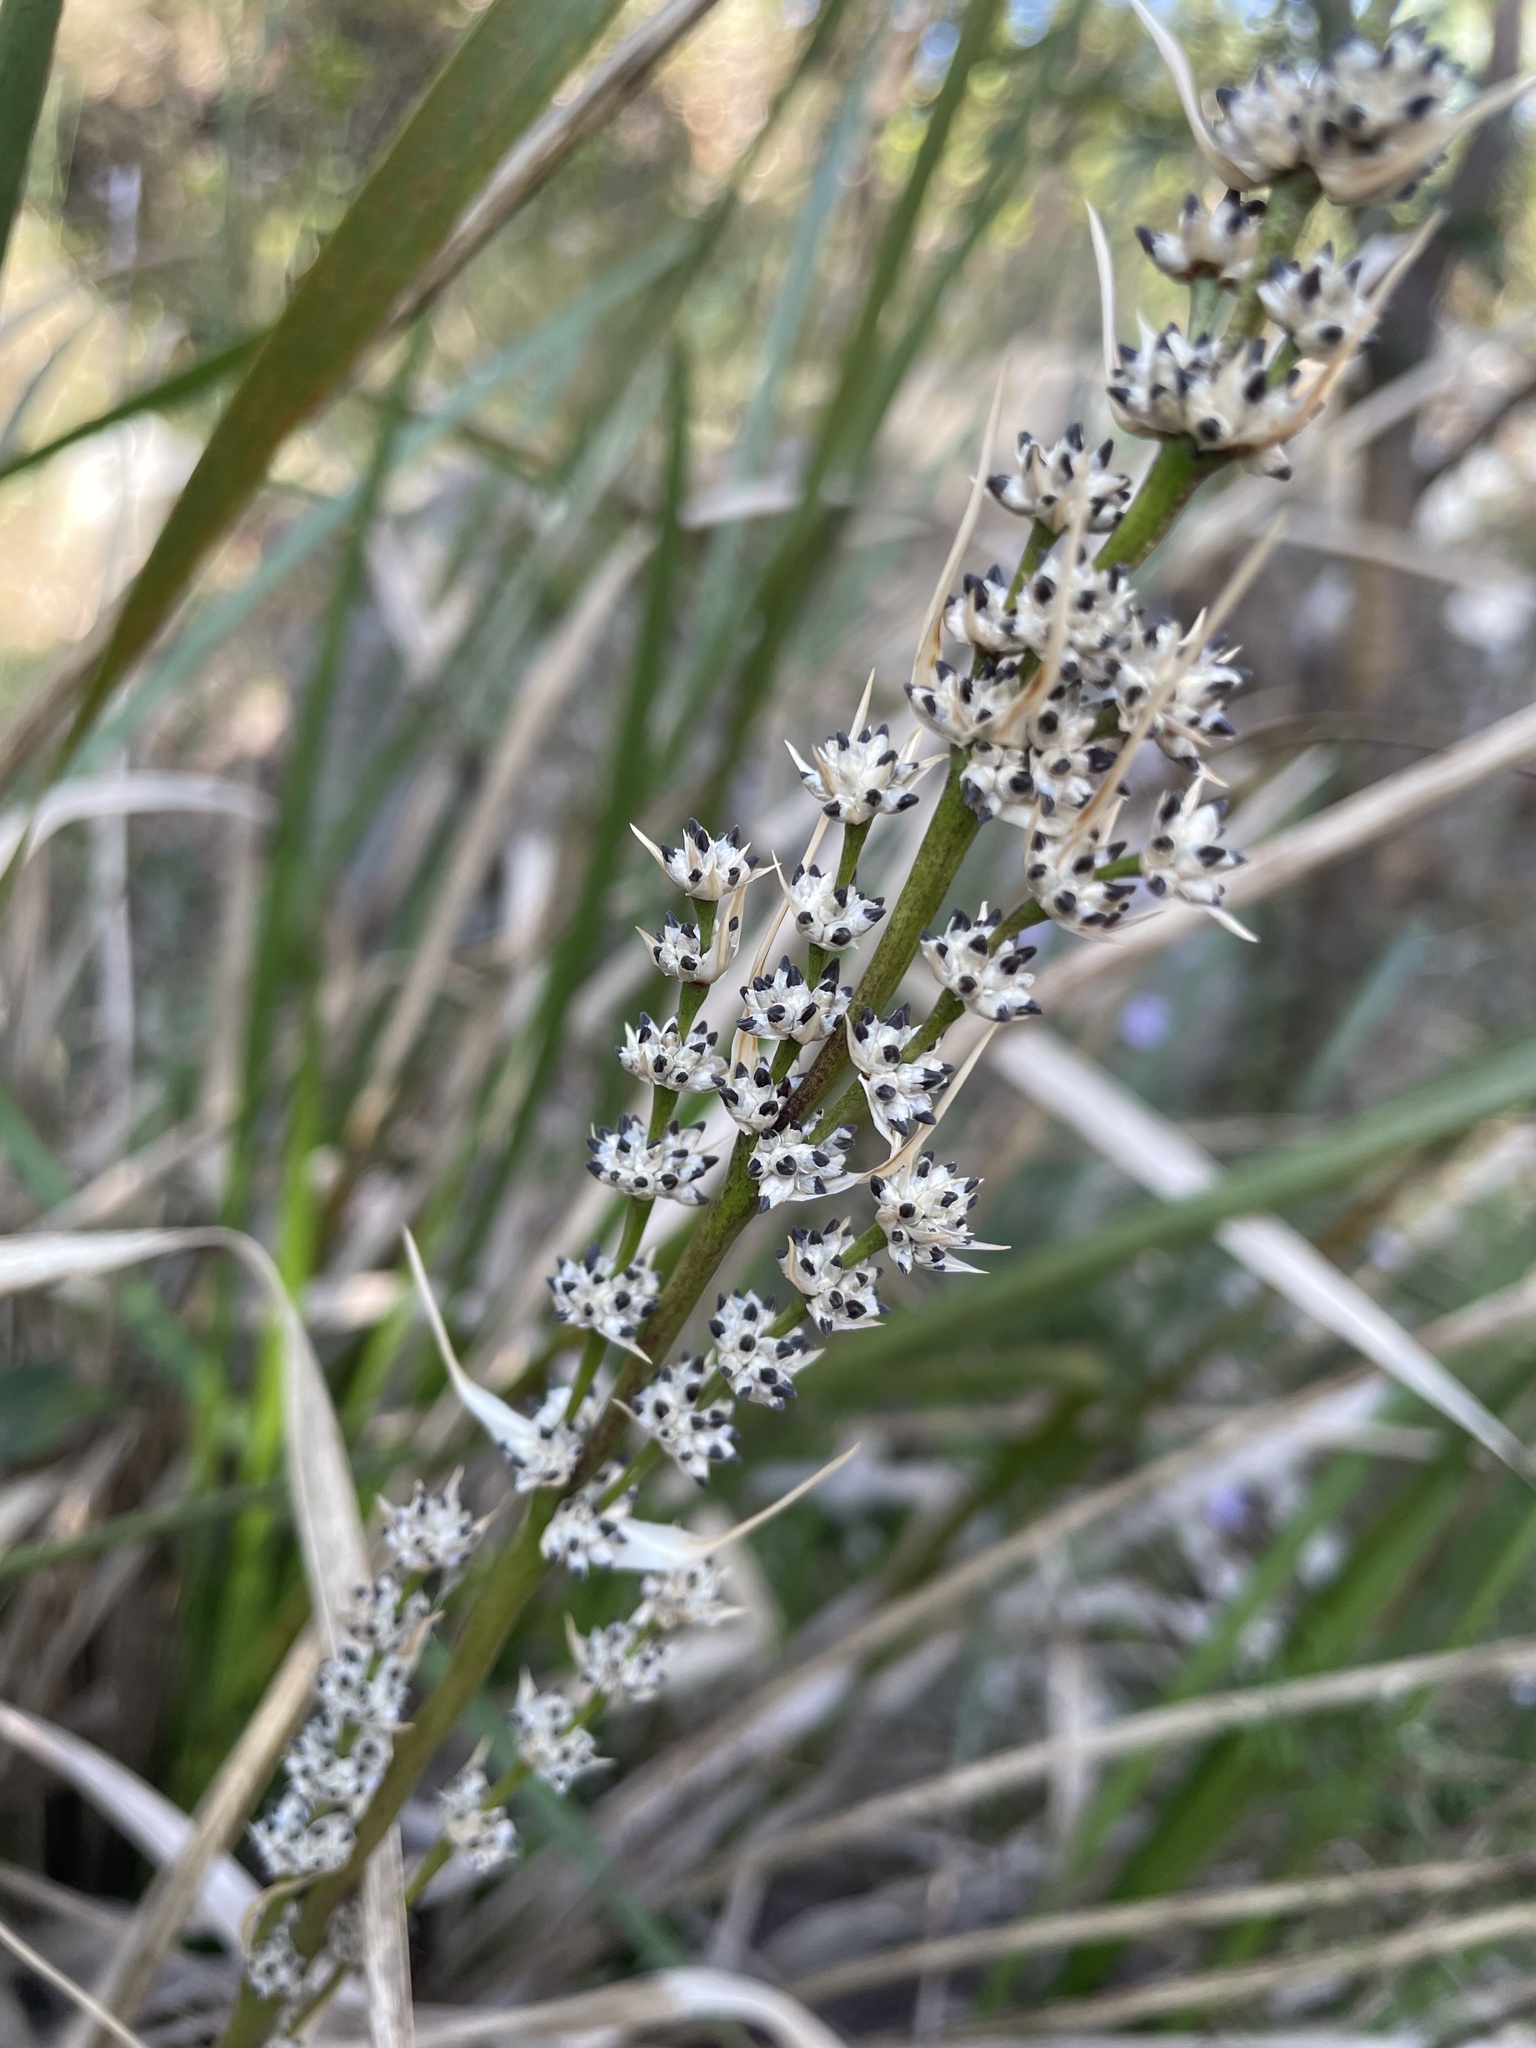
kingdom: Plantae
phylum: Tracheophyta
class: Liliopsida
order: Asparagales
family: Asparagaceae
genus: Lomandra
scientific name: Lomandra longifolia
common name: Longleaf mat-rush
